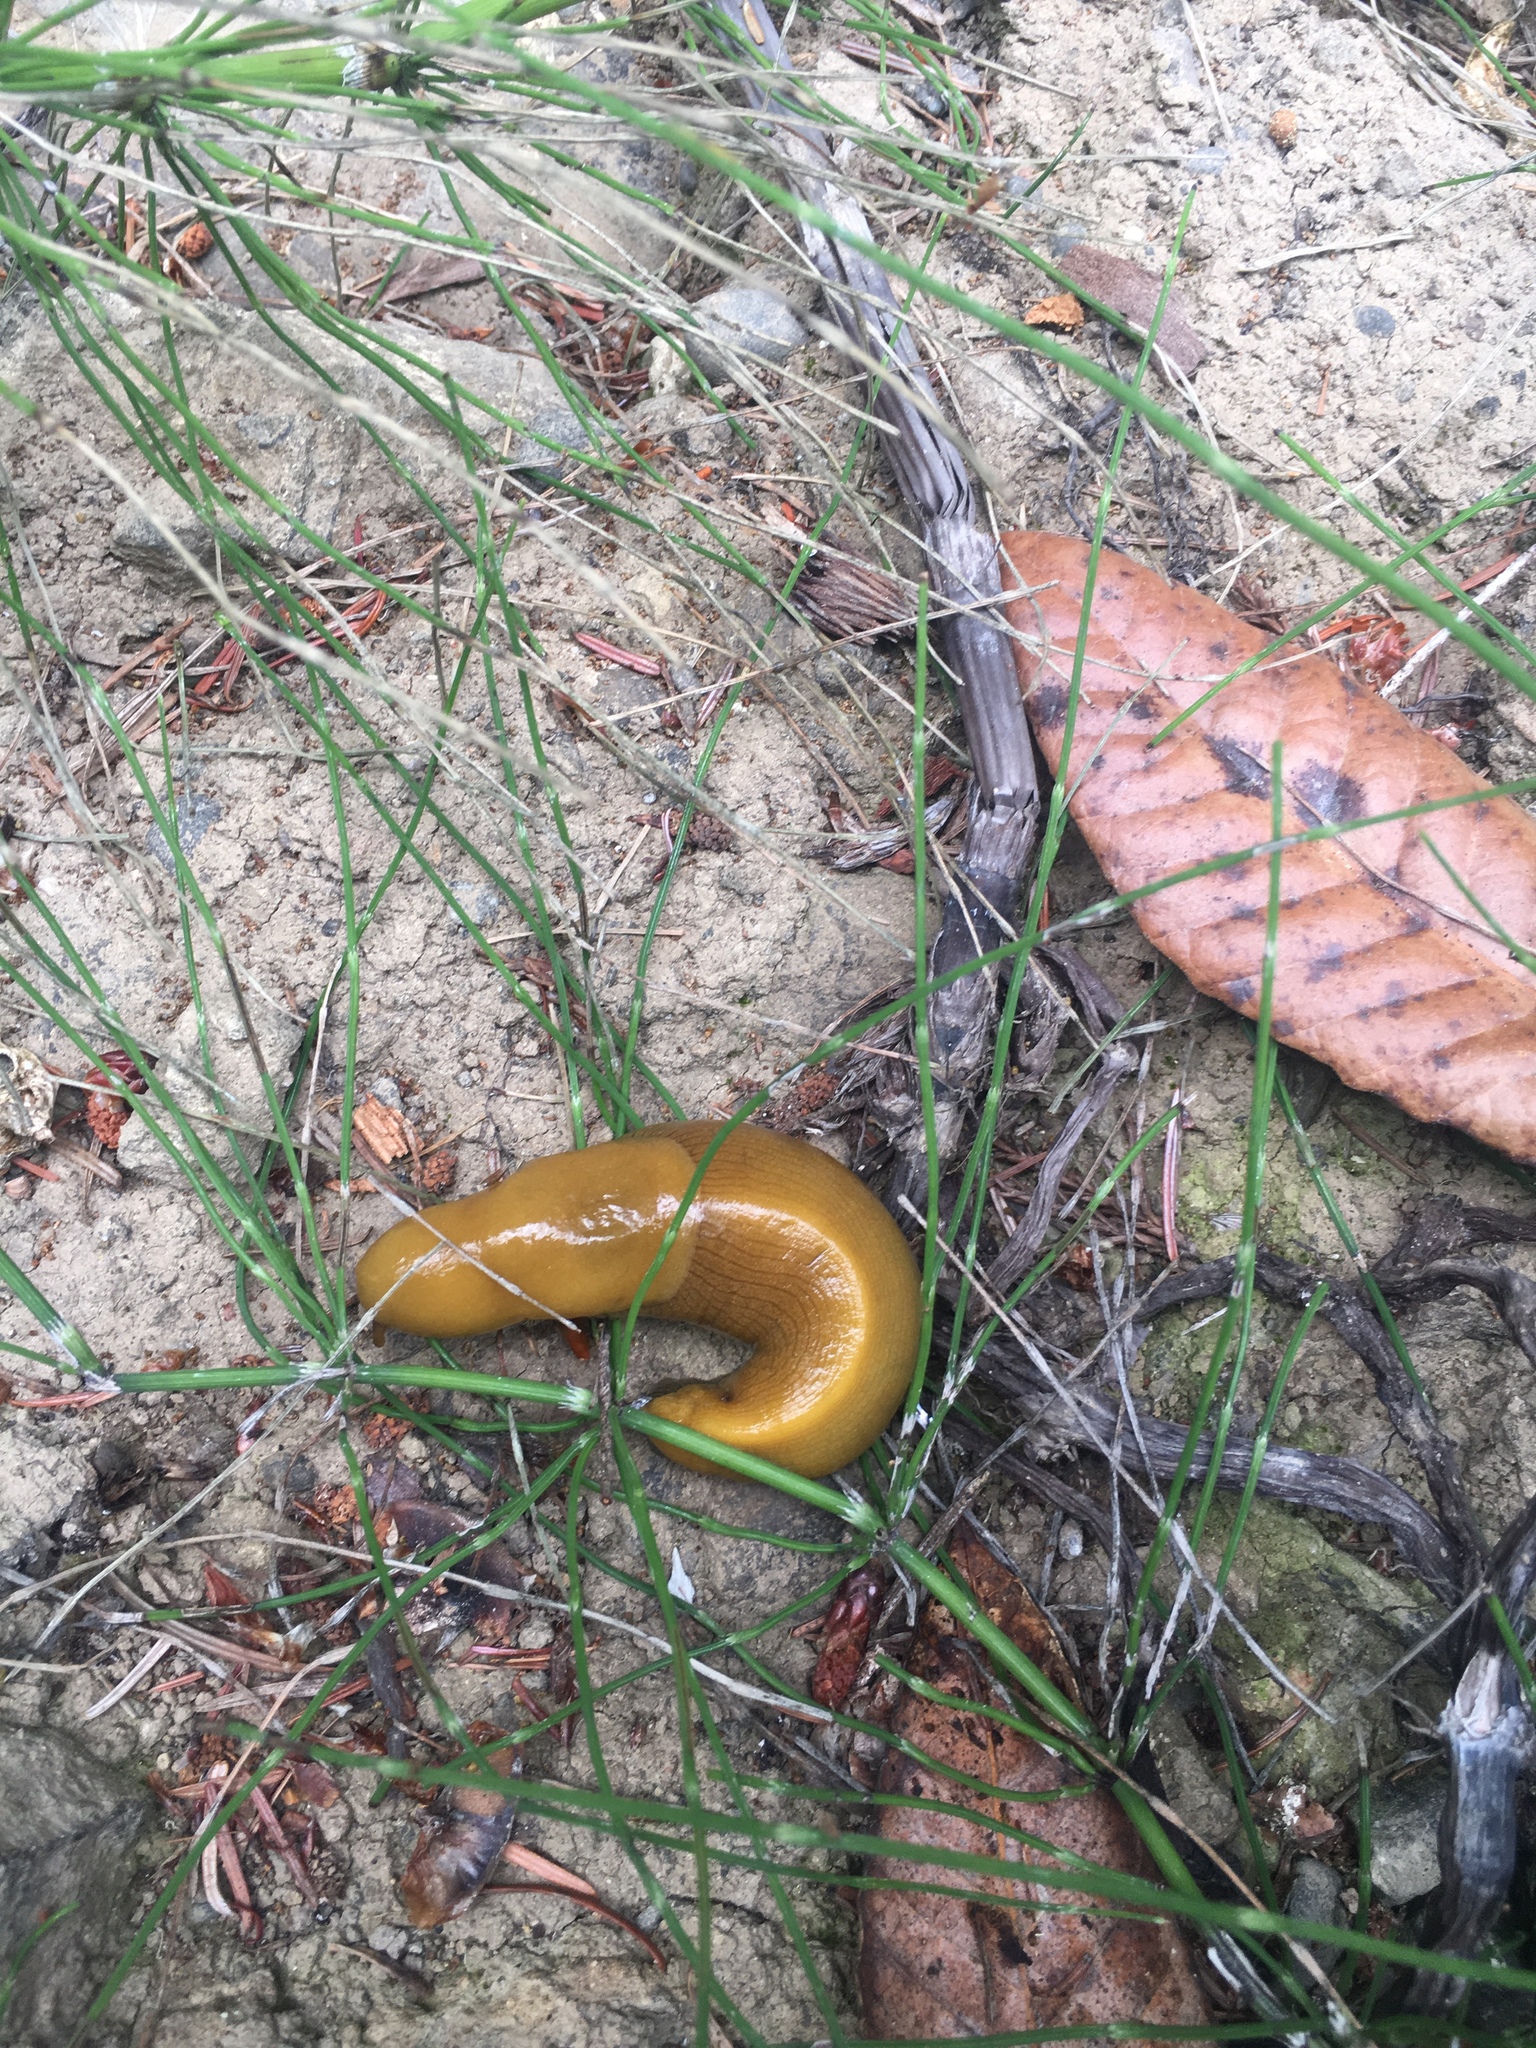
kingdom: Animalia
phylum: Mollusca
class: Gastropoda
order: Stylommatophora
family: Ariolimacidae
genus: Ariolimax
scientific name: Ariolimax buttoni
